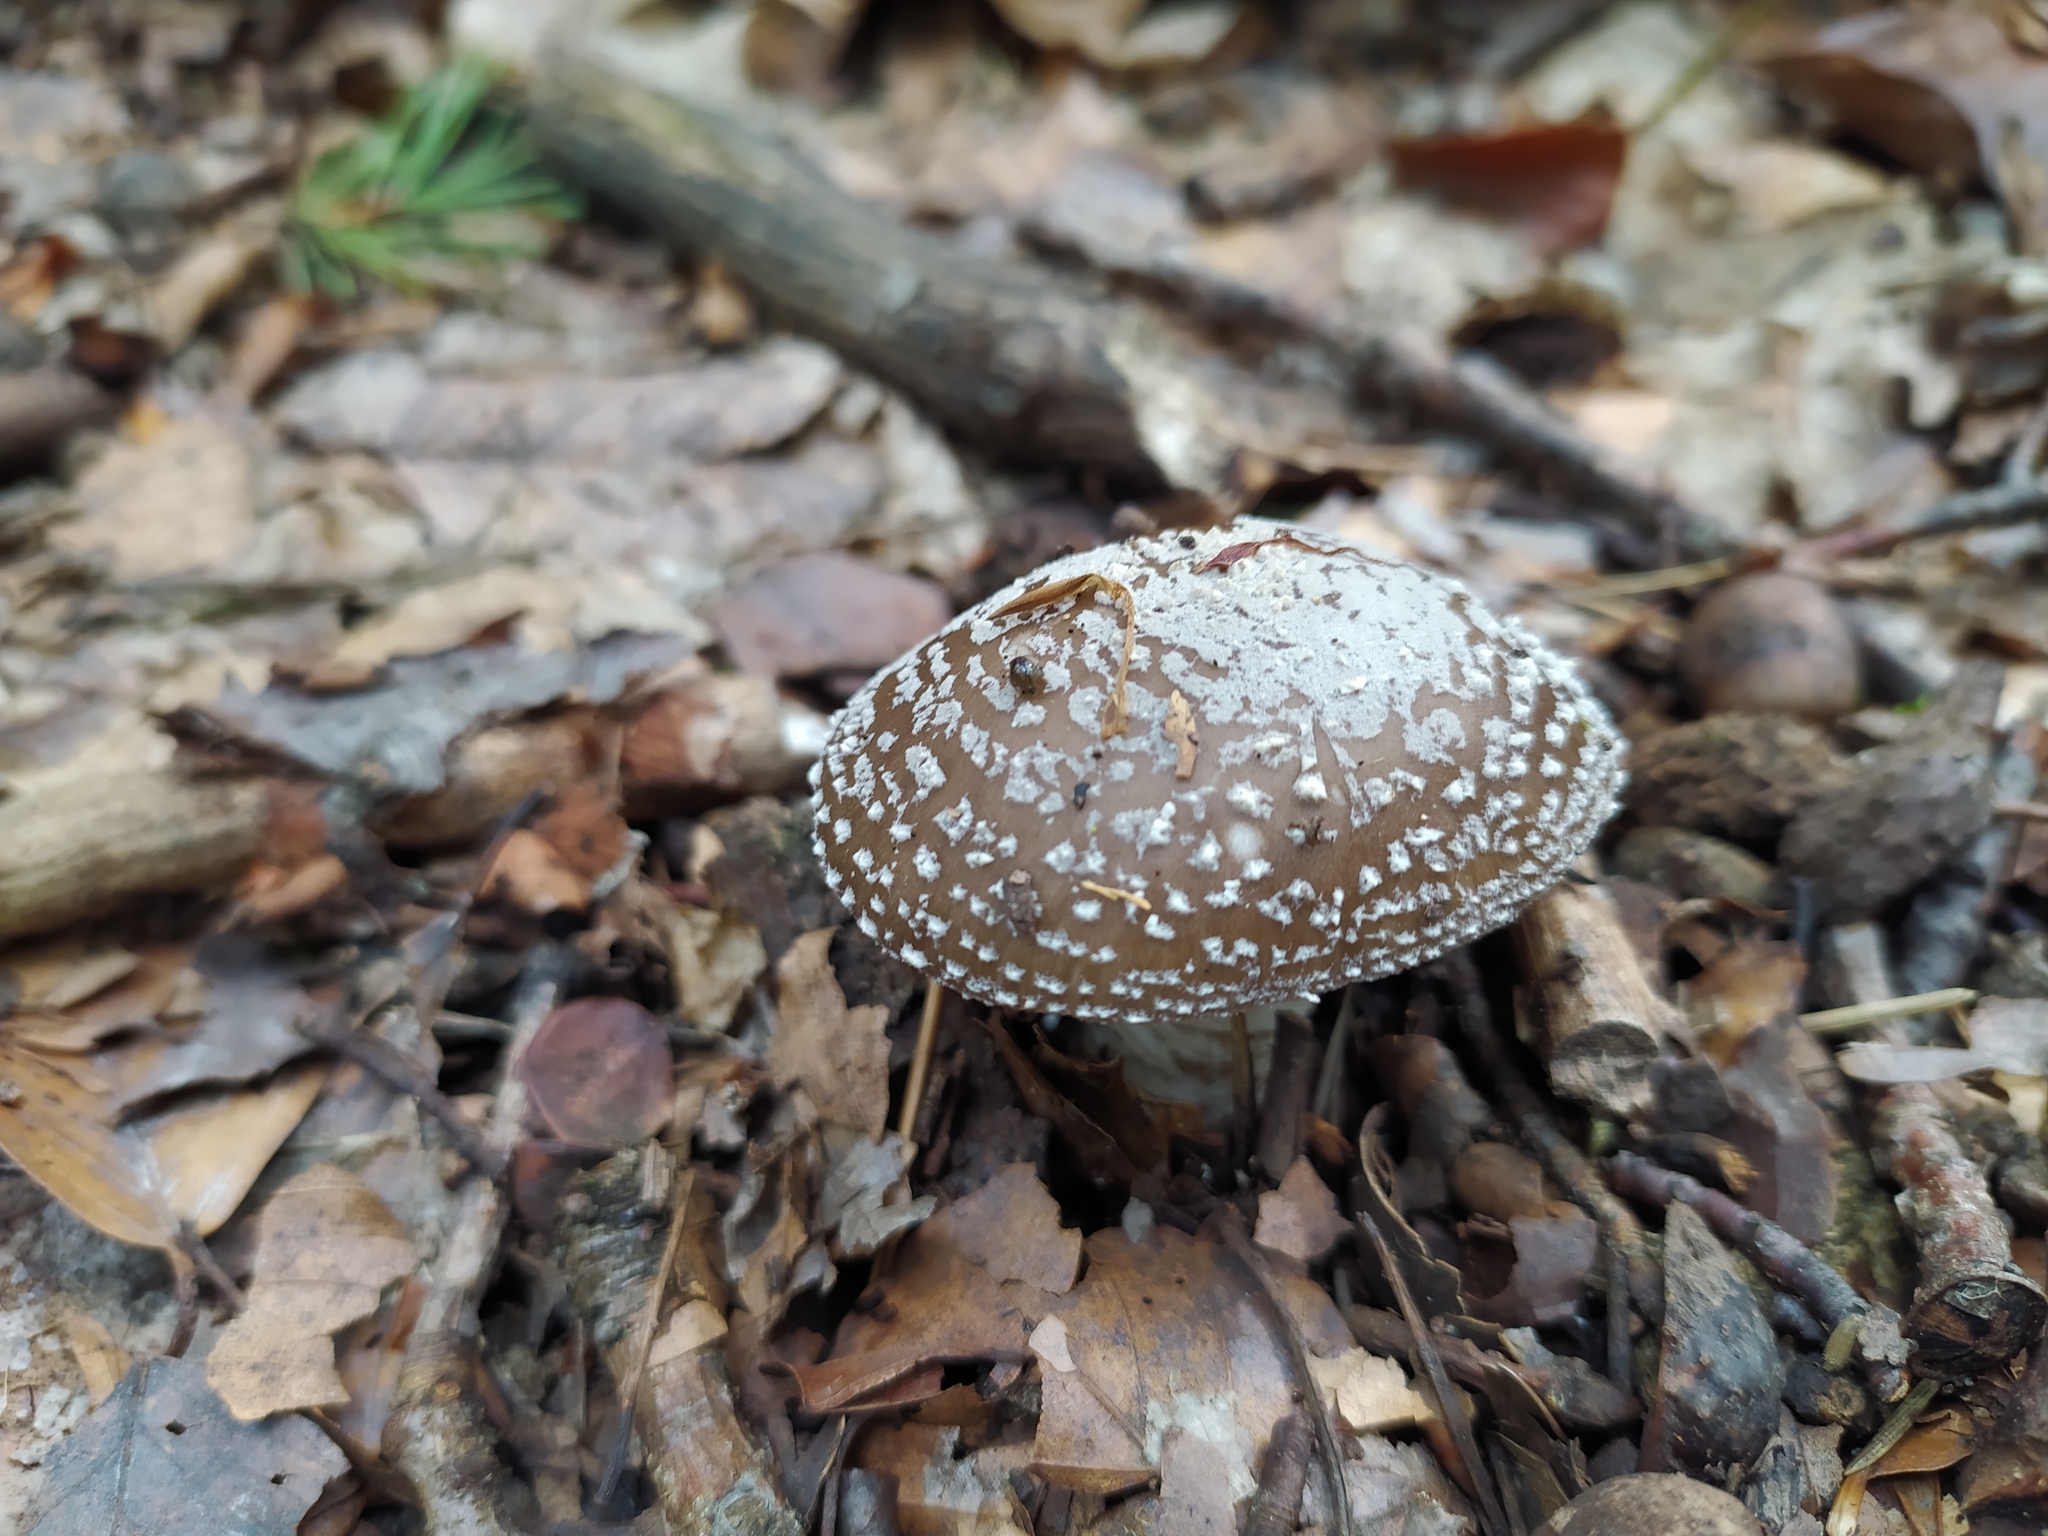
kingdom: Fungi
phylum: Basidiomycota
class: Agaricomycetes
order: Agaricales
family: Amanitaceae
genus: Amanita
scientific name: Amanita pantherina
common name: Panthercap
